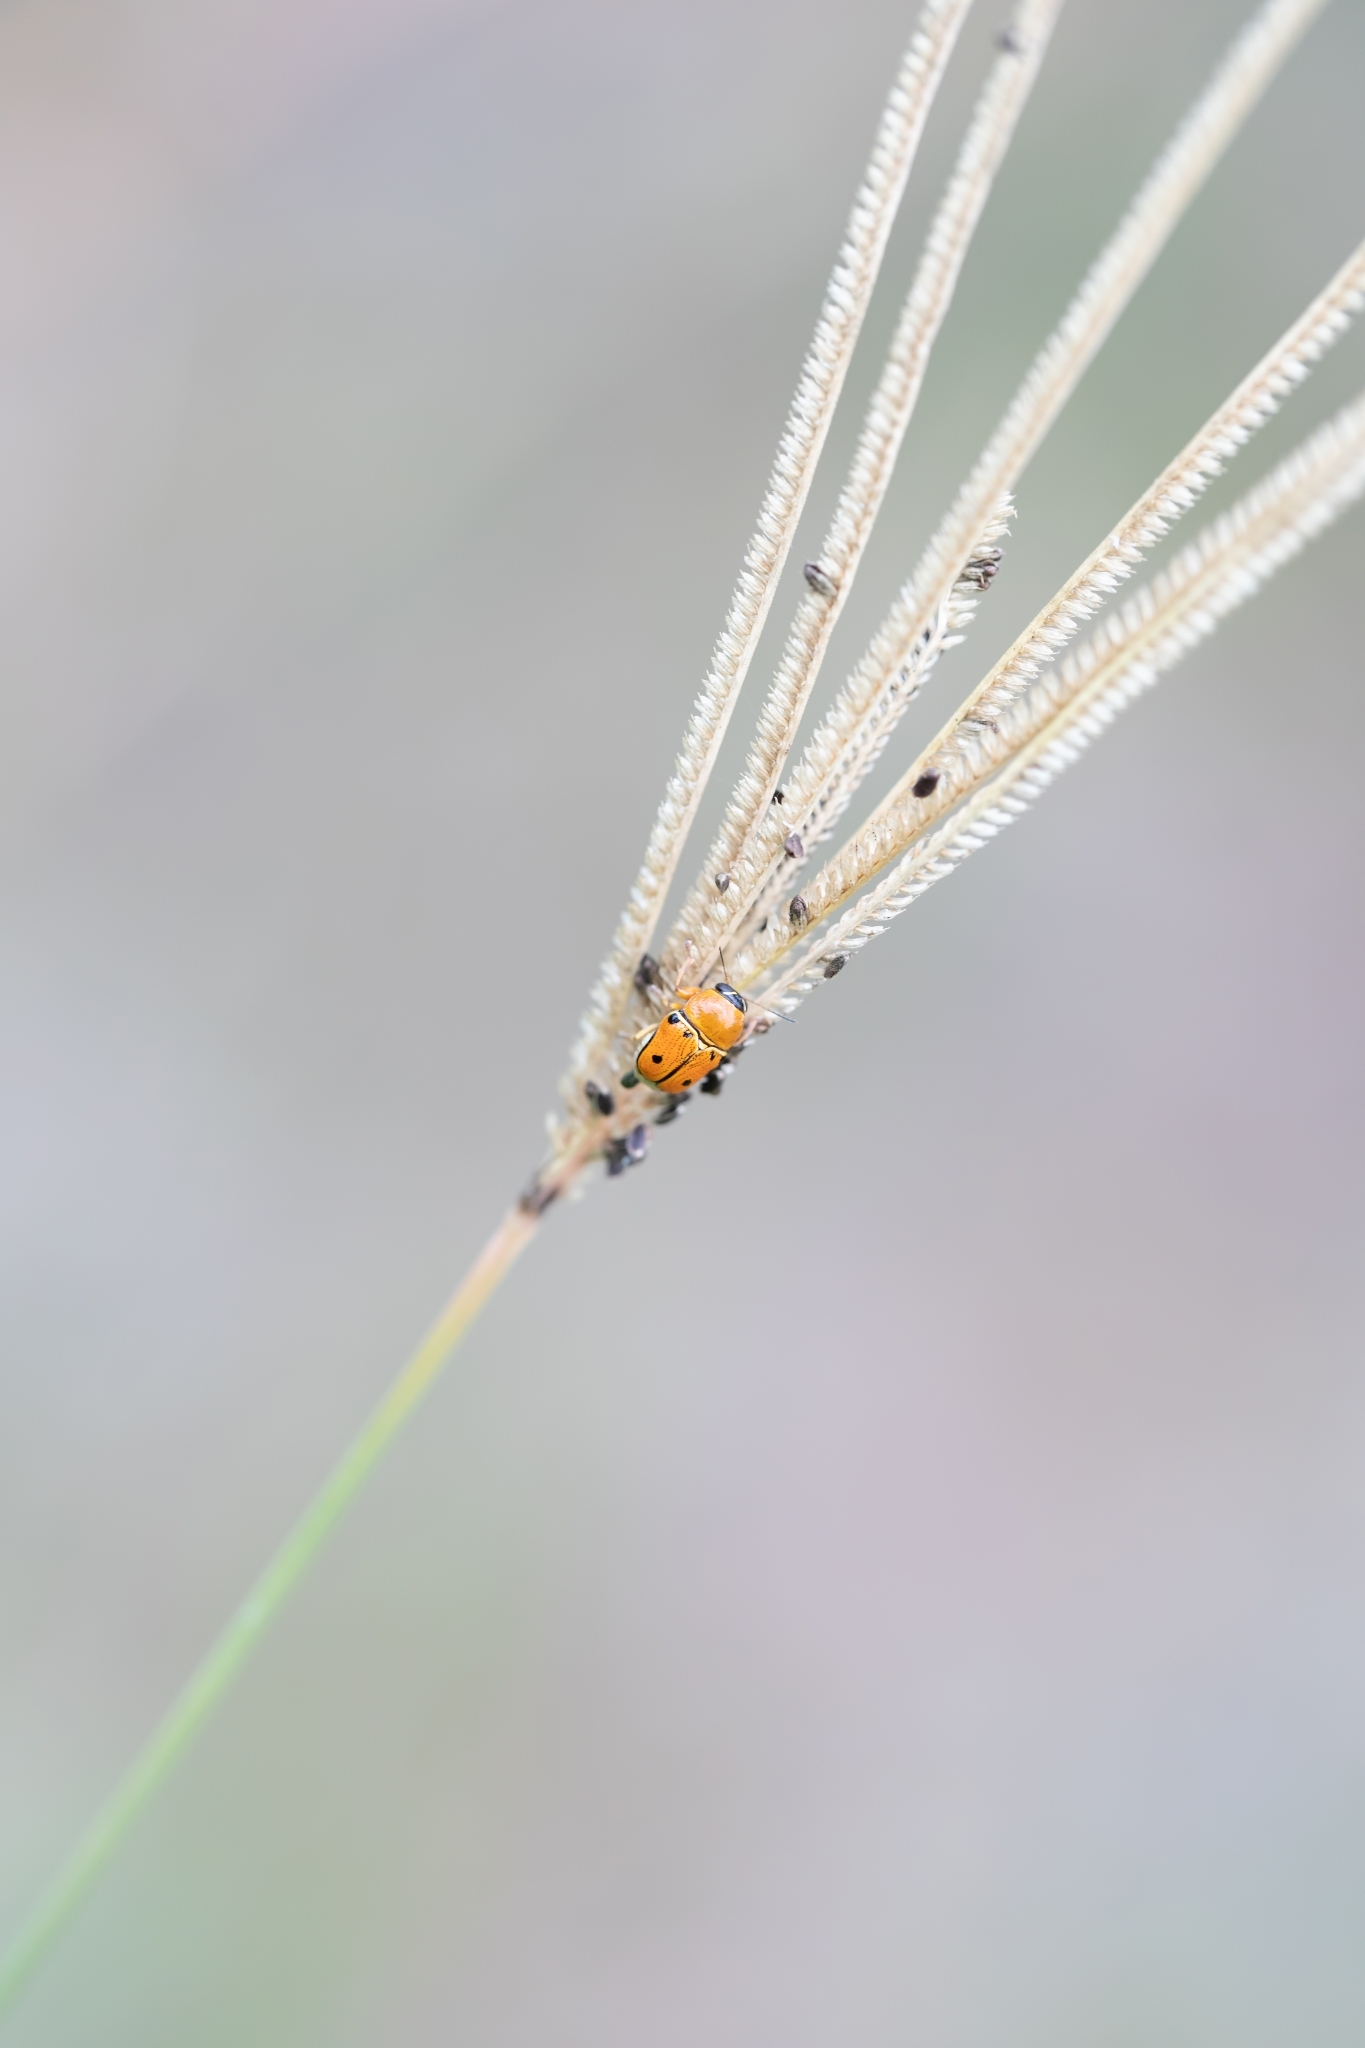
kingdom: Animalia
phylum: Arthropoda
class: Insecta
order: Coleoptera
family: Chrysomelidae
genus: Griburius
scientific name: Griburius larvatus
